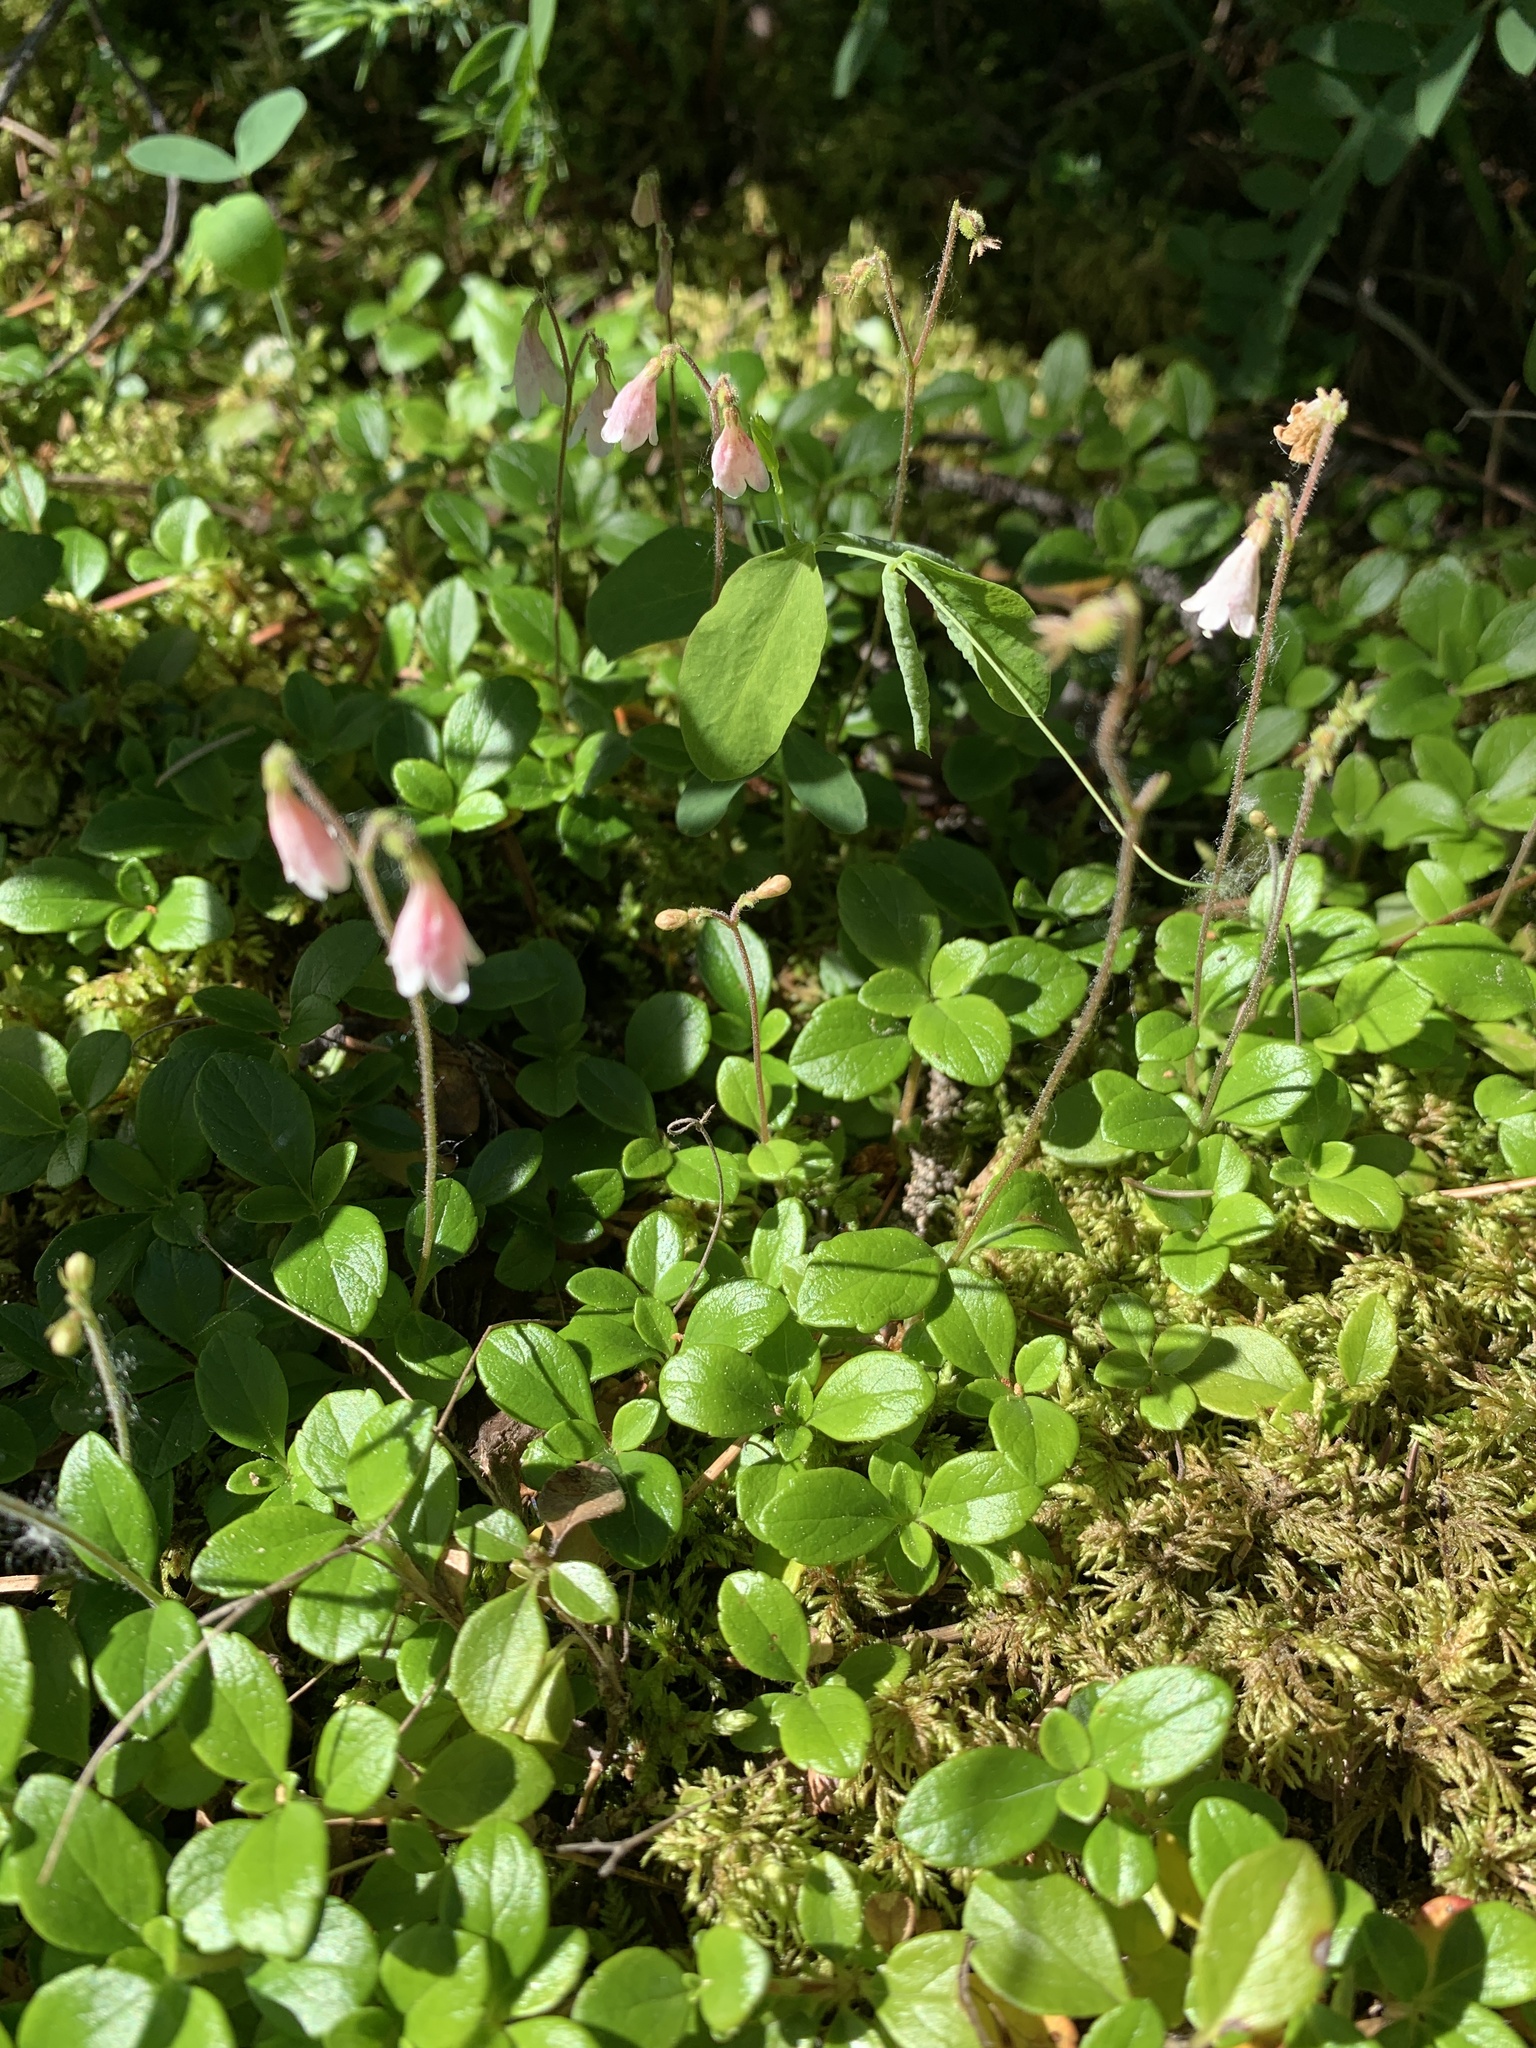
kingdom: Plantae
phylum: Tracheophyta
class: Magnoliopsida
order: Dipsacales
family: Caprifoliaceae
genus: Linnaea
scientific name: Linnaea borealis
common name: Twinflower
